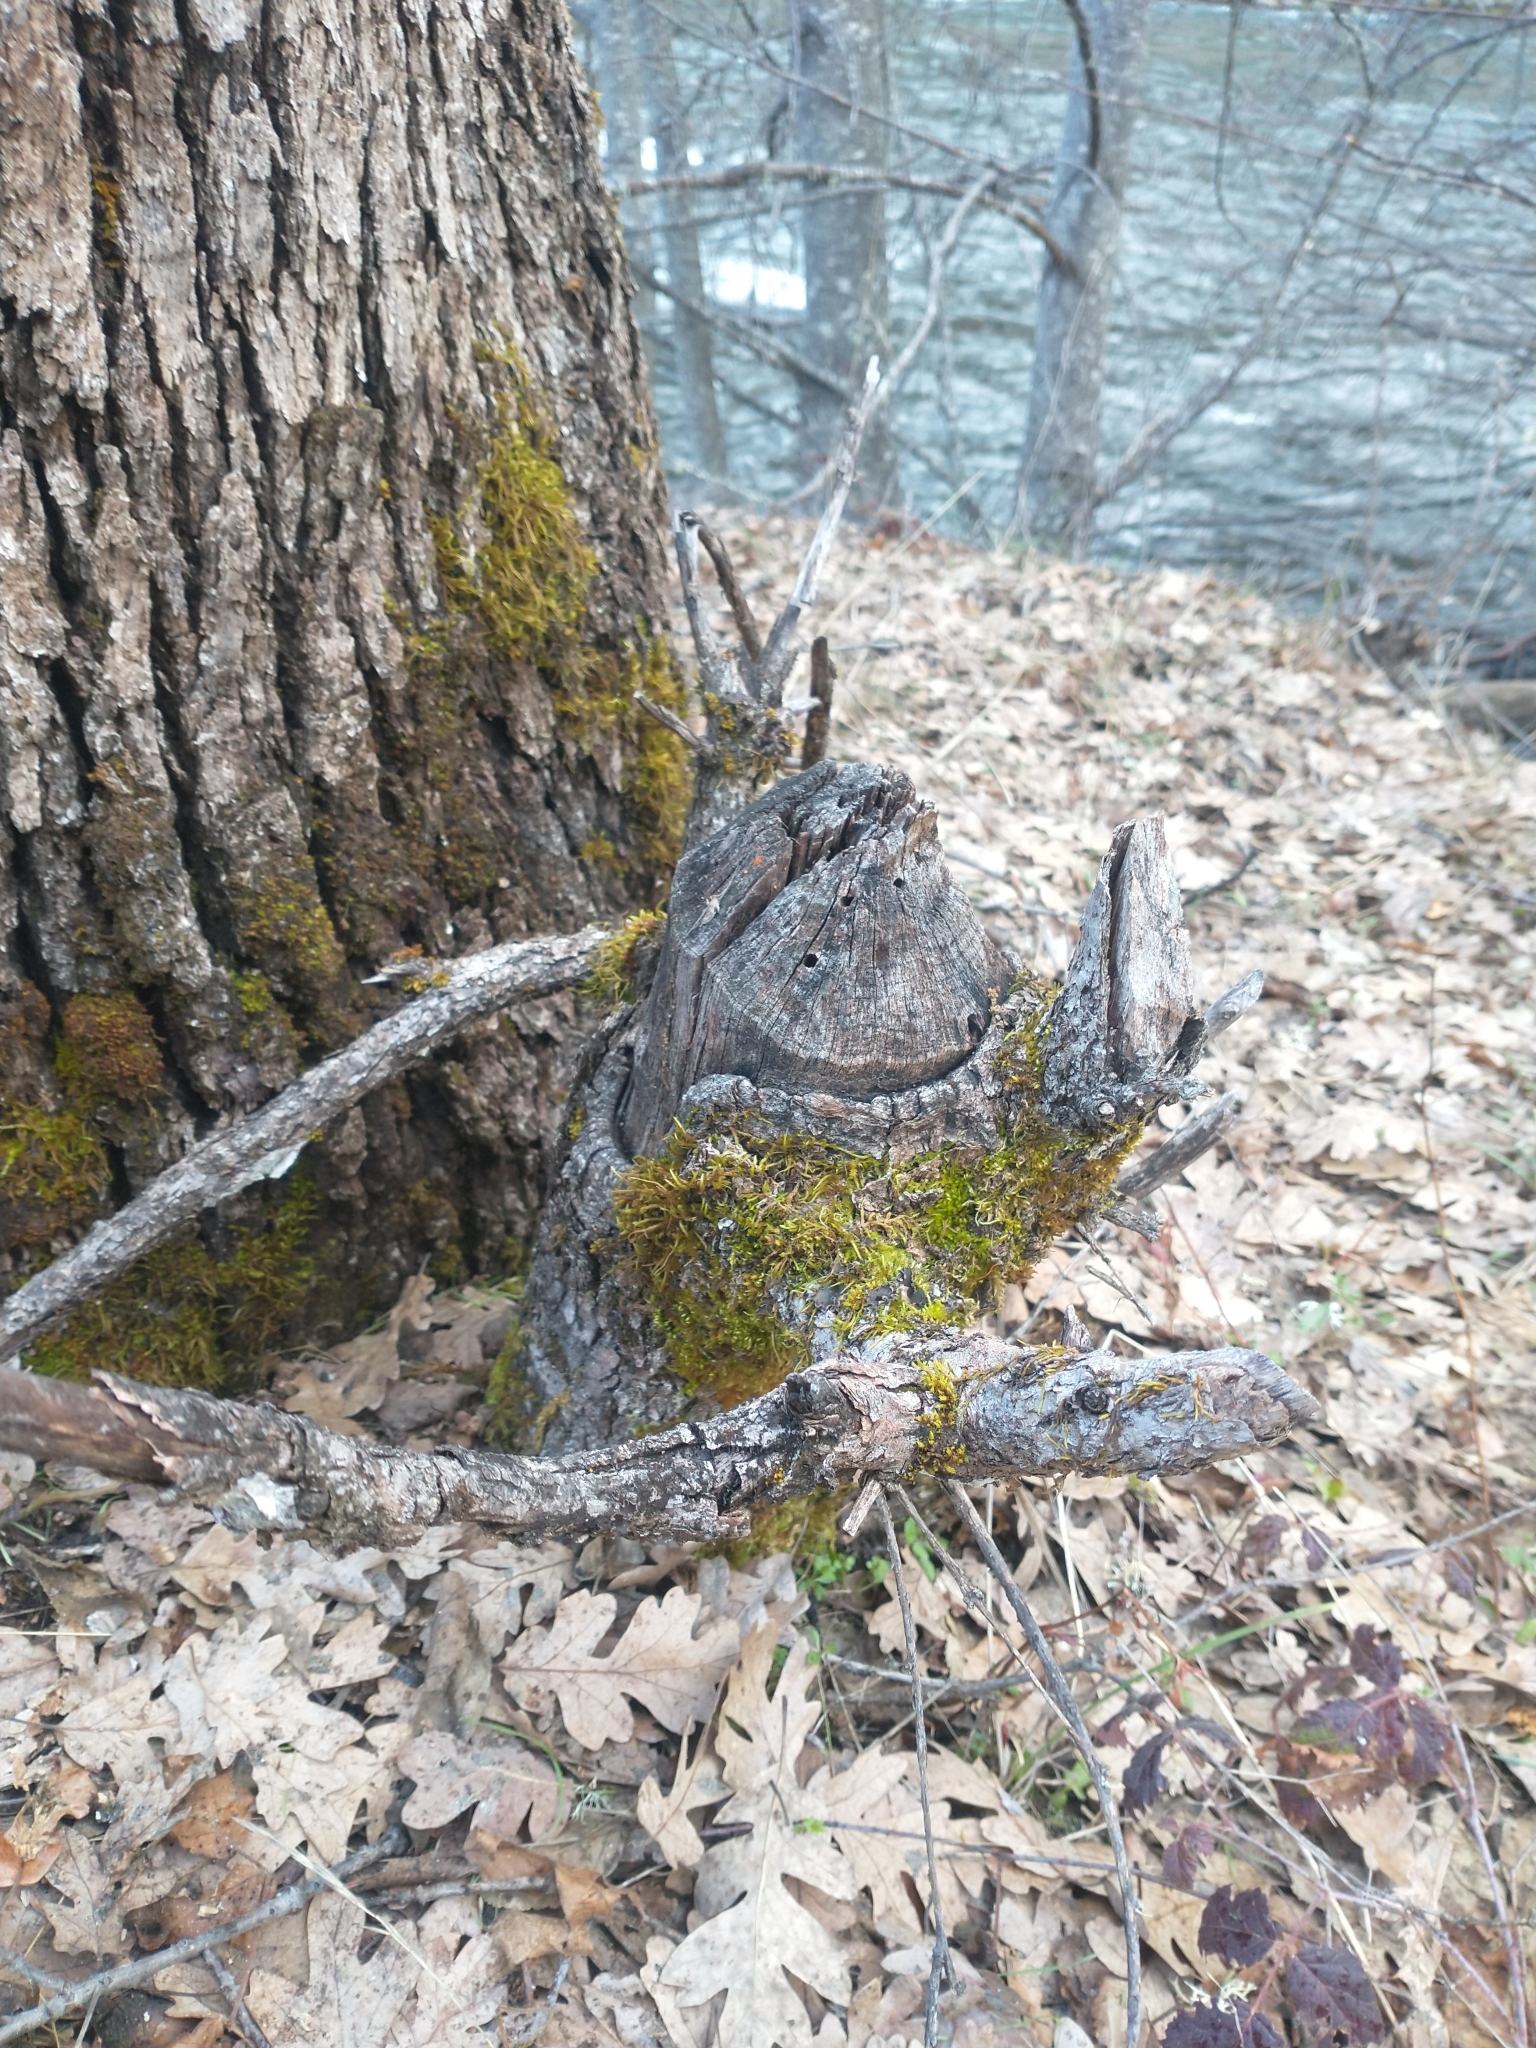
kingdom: Animalia
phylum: Chordata
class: Mammalia
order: Rodentia
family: Castoridae
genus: Castor
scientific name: Castor canadensis
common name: American beaver
